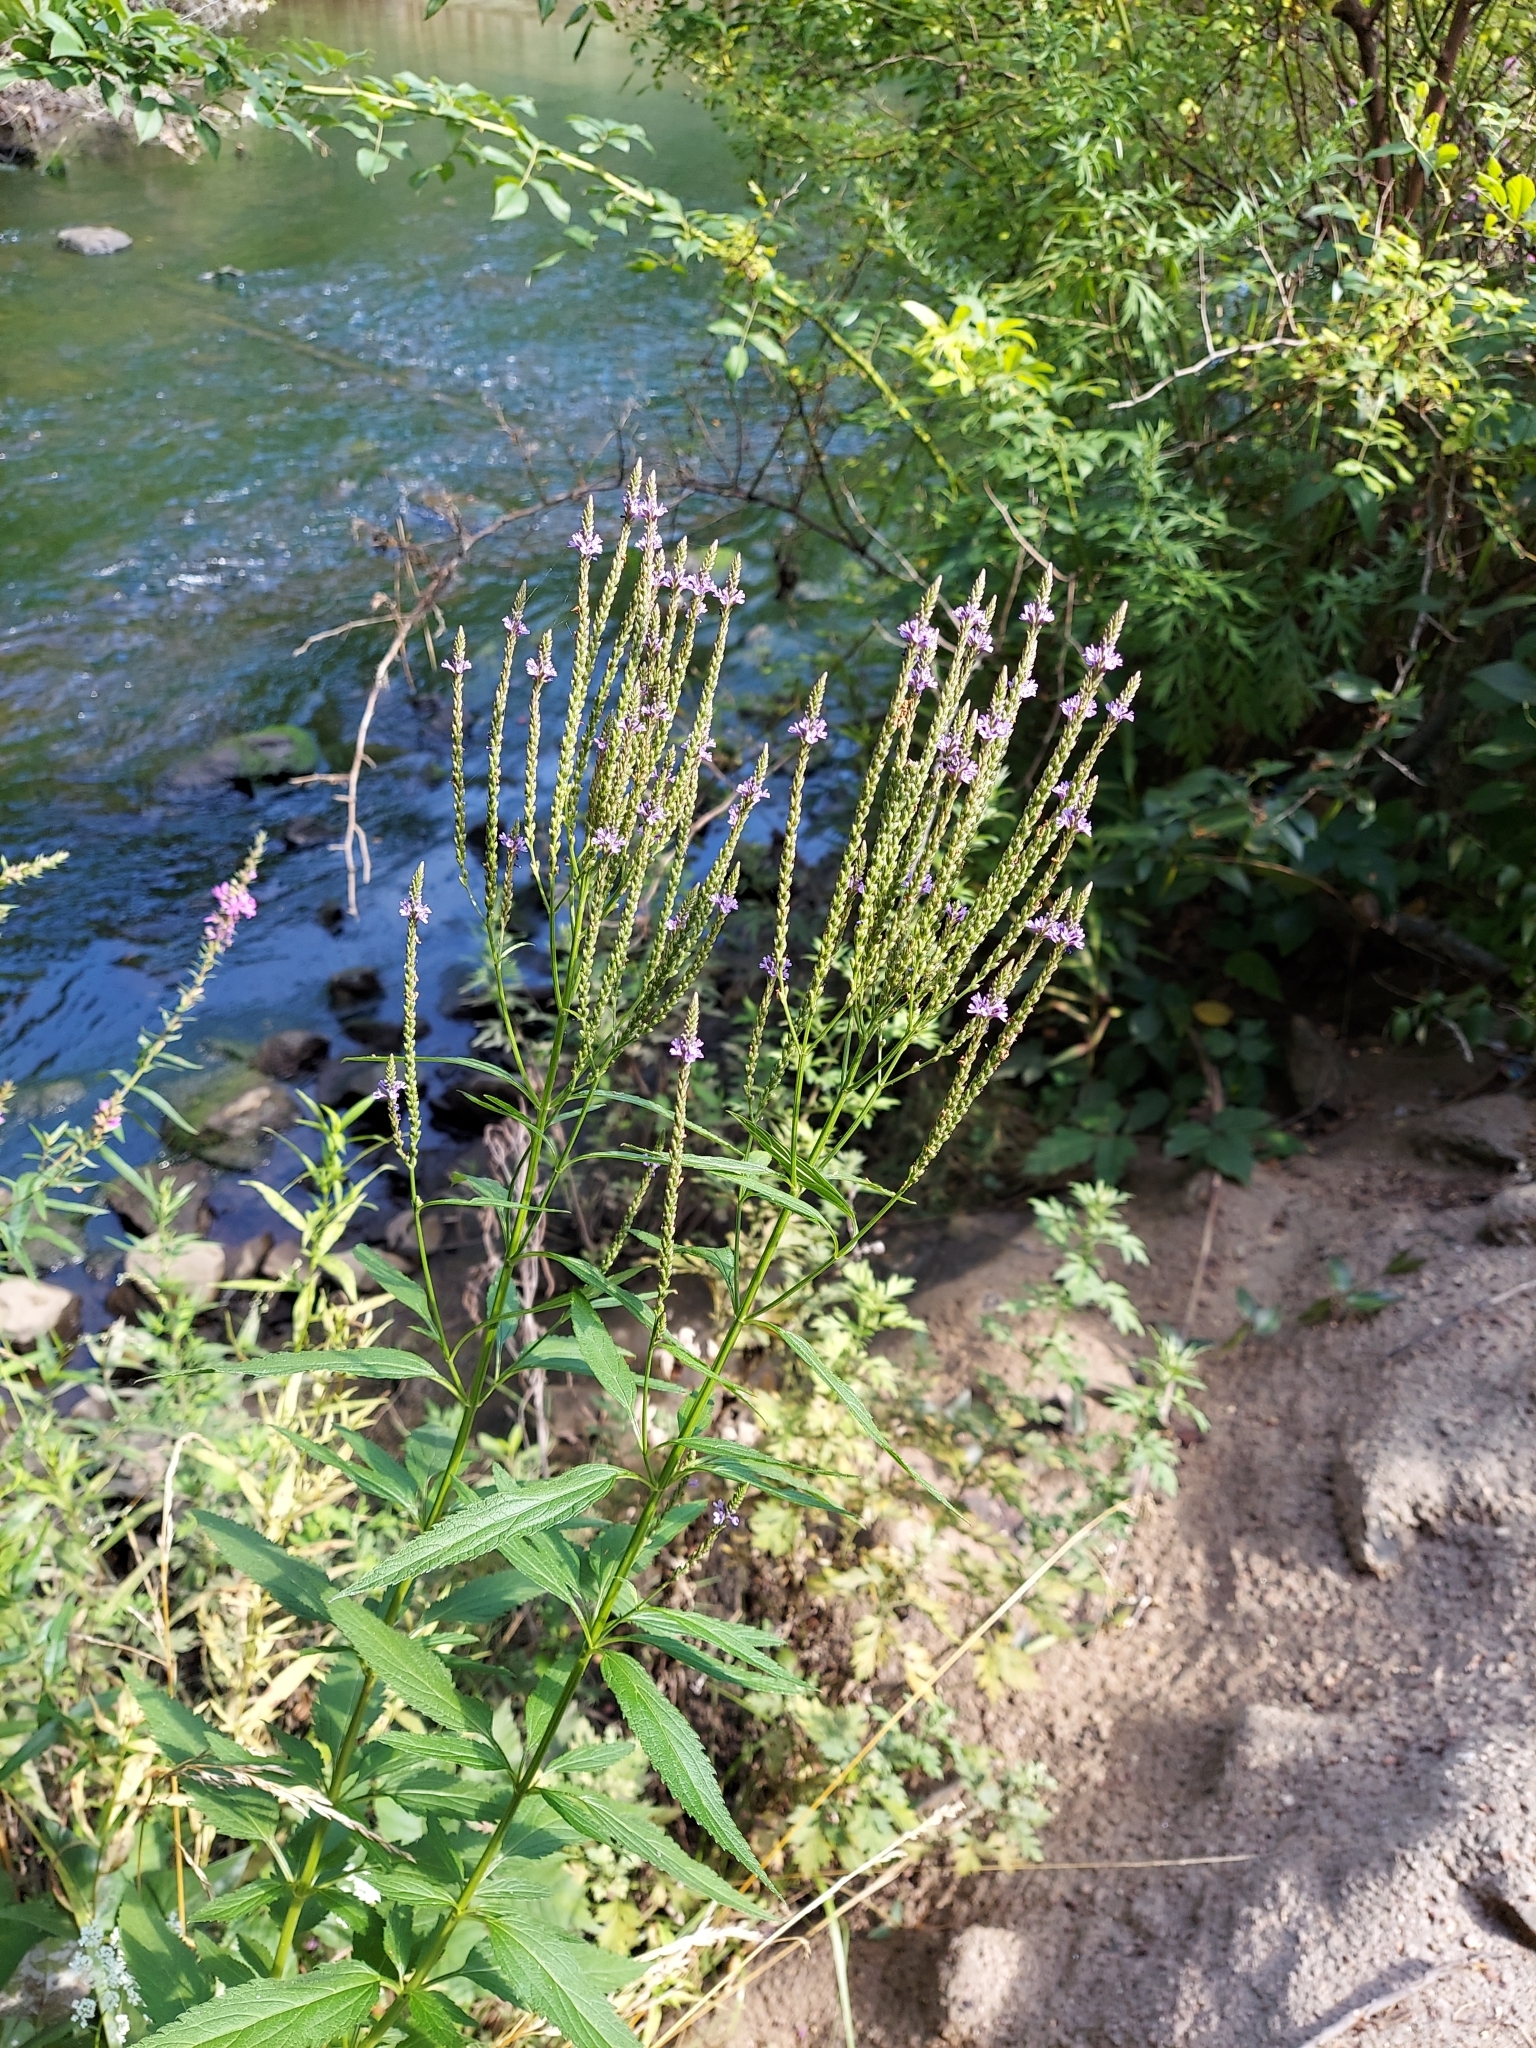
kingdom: Plantae
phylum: Tracheophyta
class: Magnoliopsida
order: Lamiales
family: Verbenaceae
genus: Verbena
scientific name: Verbena hastata
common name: American blue vervain
